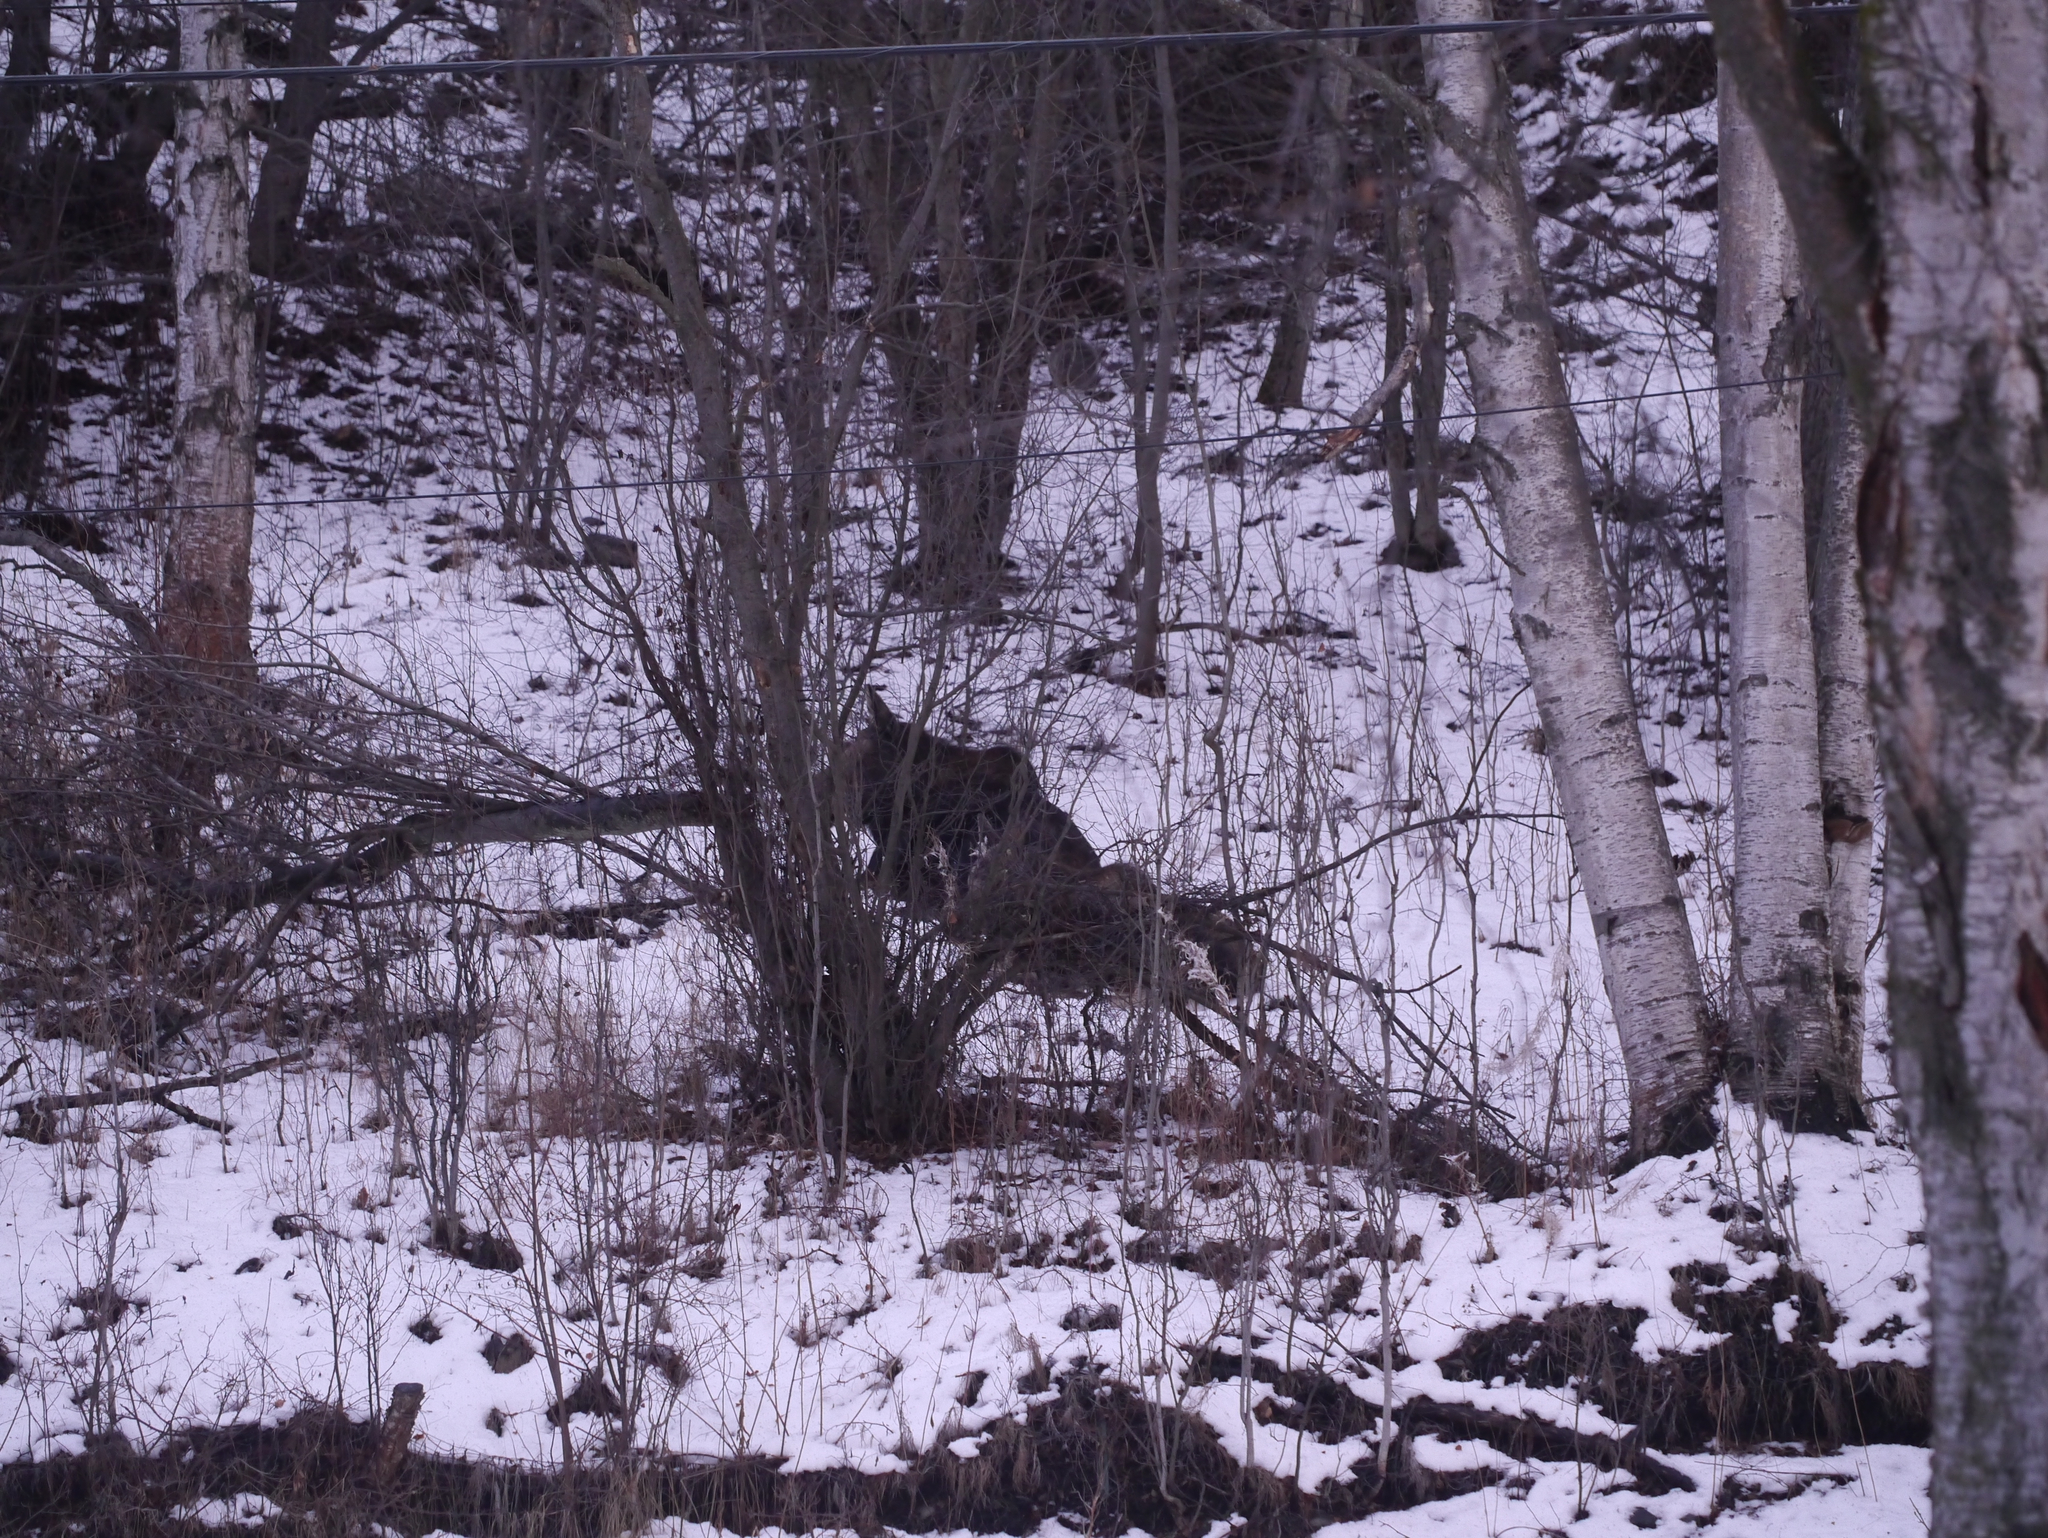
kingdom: Animalia
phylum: Chordata
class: Mammalia
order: Artiodactyla
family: Cervidae
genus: Alces
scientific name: Alces alces
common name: Moose
